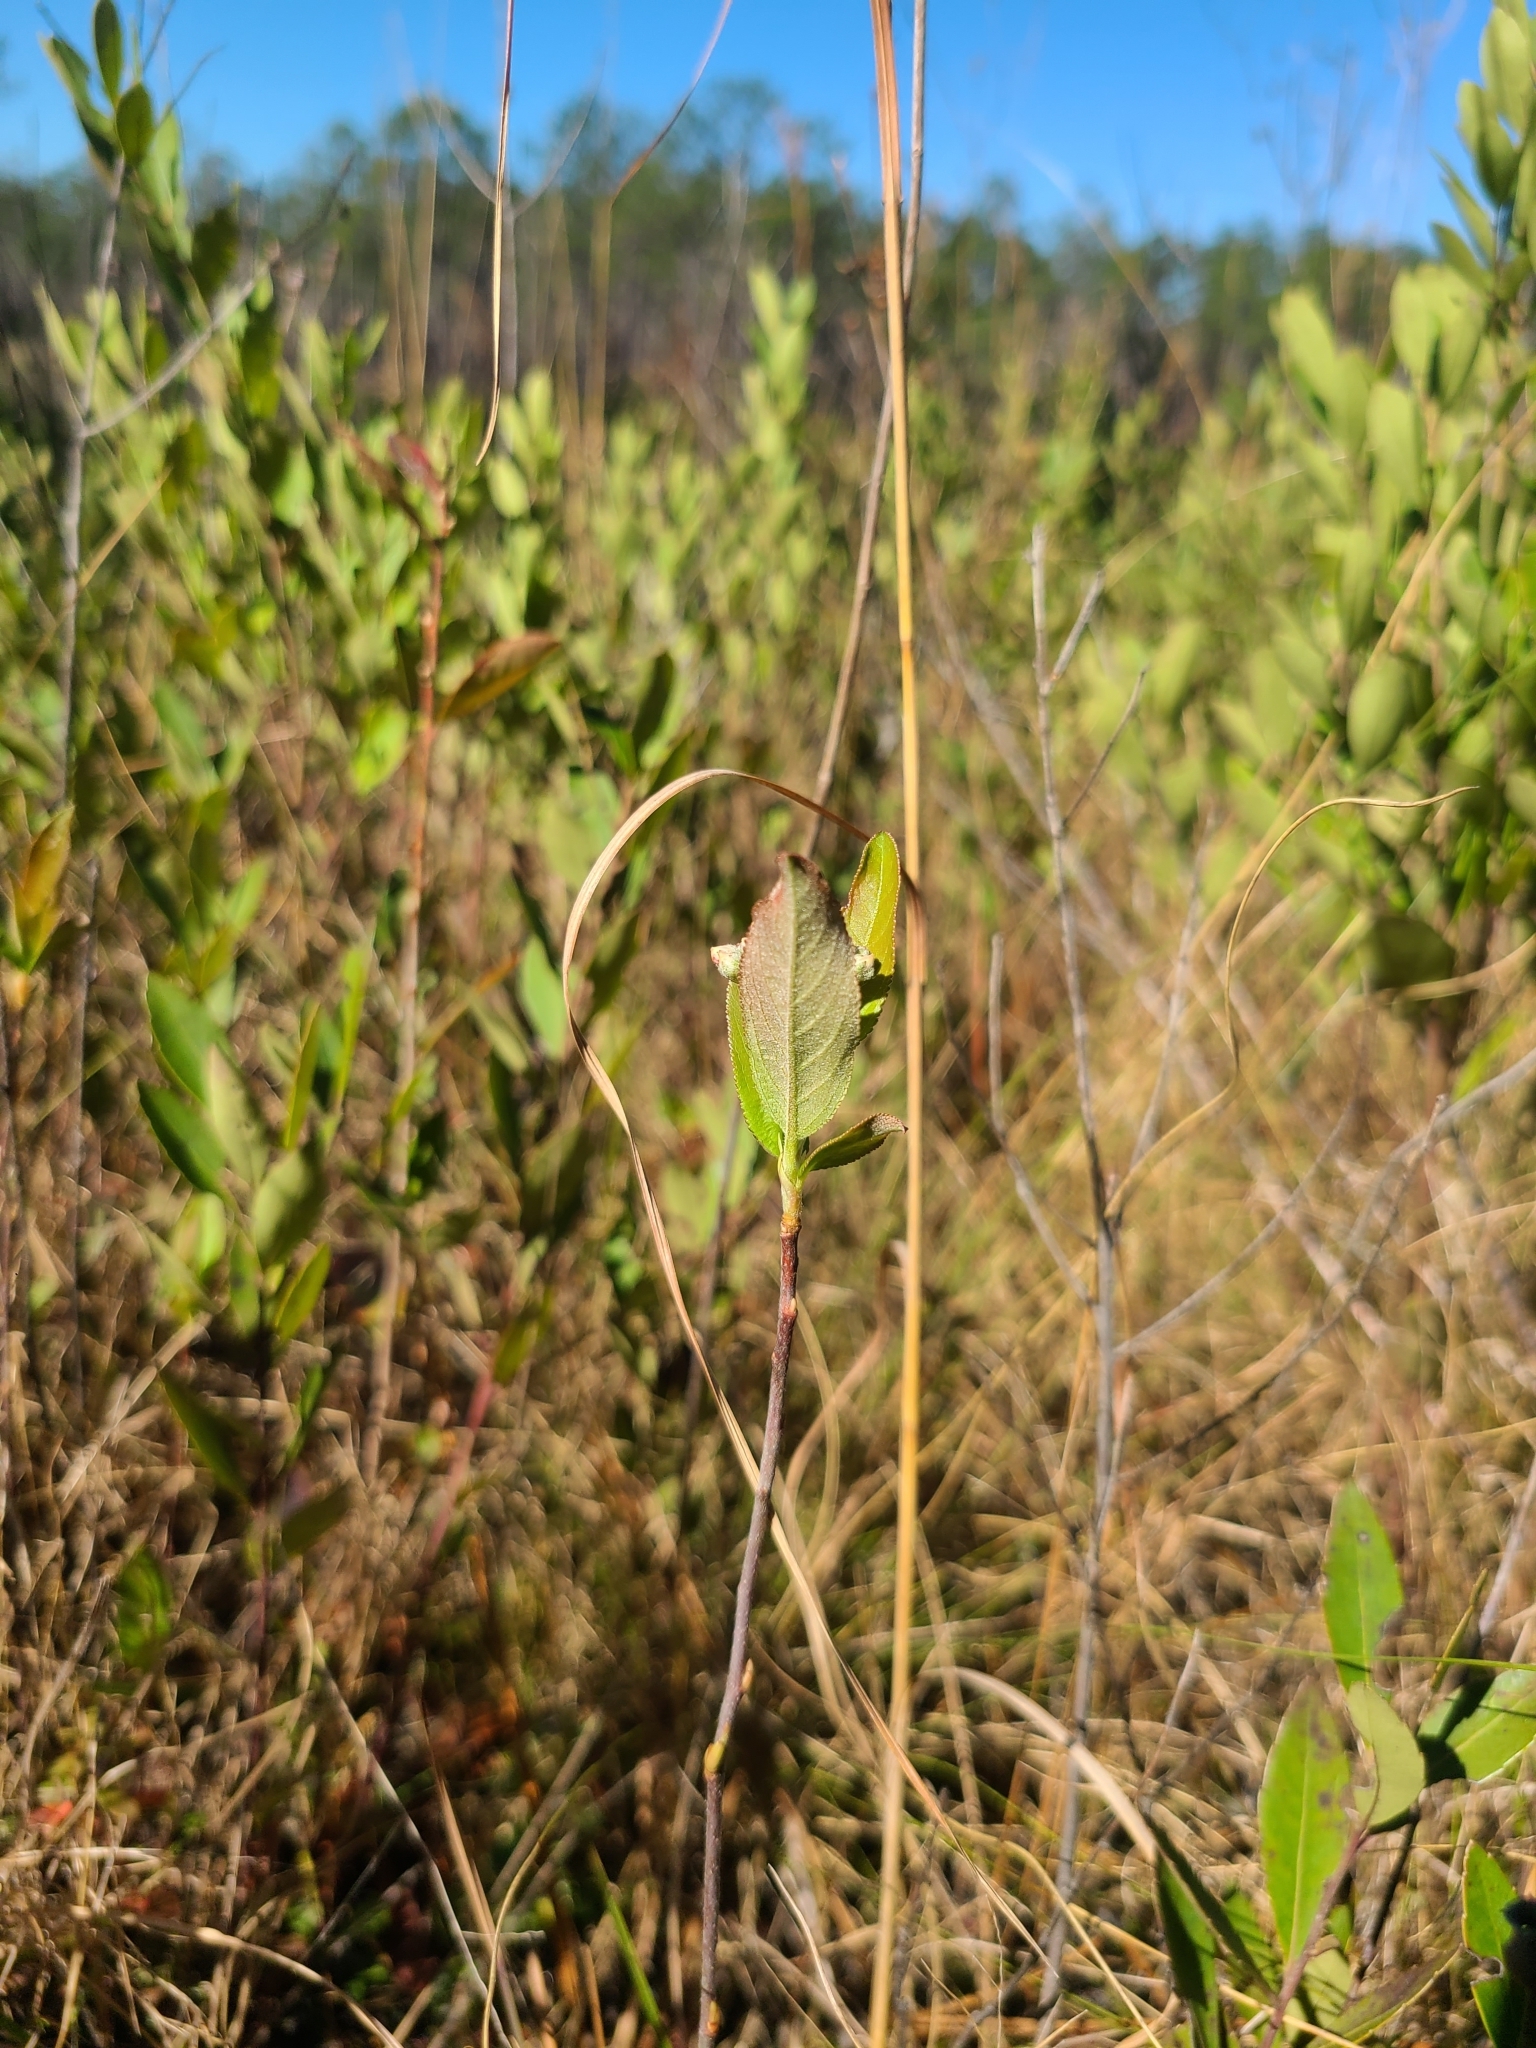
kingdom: Plantae
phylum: Tracheophyta
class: Magnoliopsida
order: Rosales
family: Rosaceae
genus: Aronia
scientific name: Aronia arbutifolia
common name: Red chokeberry
